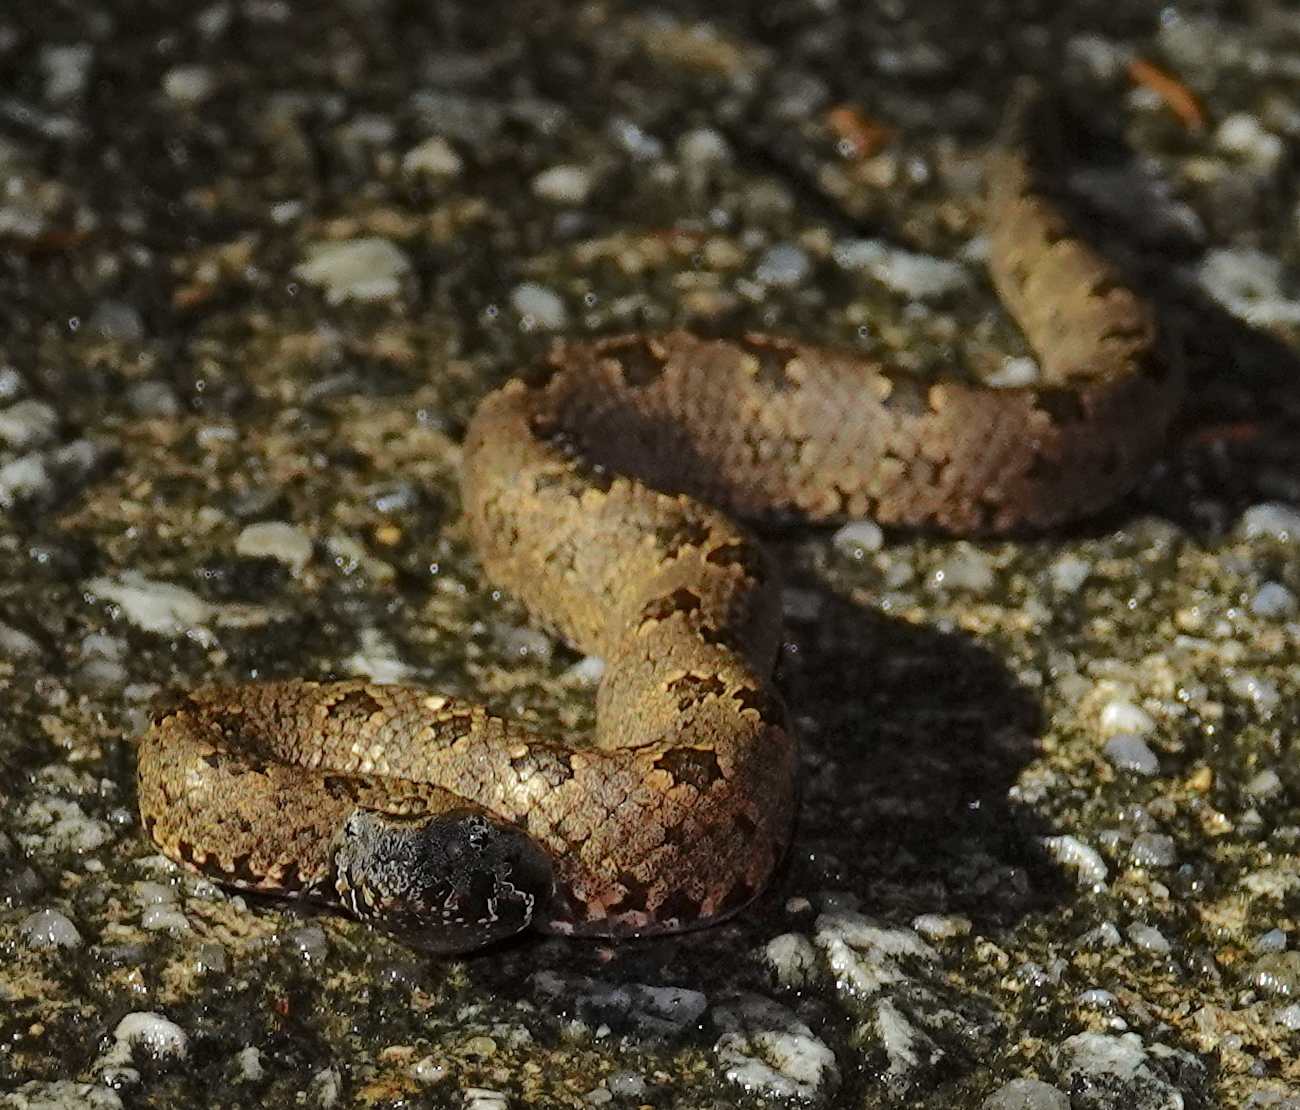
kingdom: Animalia
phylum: Chordata
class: Squamata
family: Viperidae
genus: Ovophis
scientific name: Ovophis convictus
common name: Indo-malayan mountain pitviper
